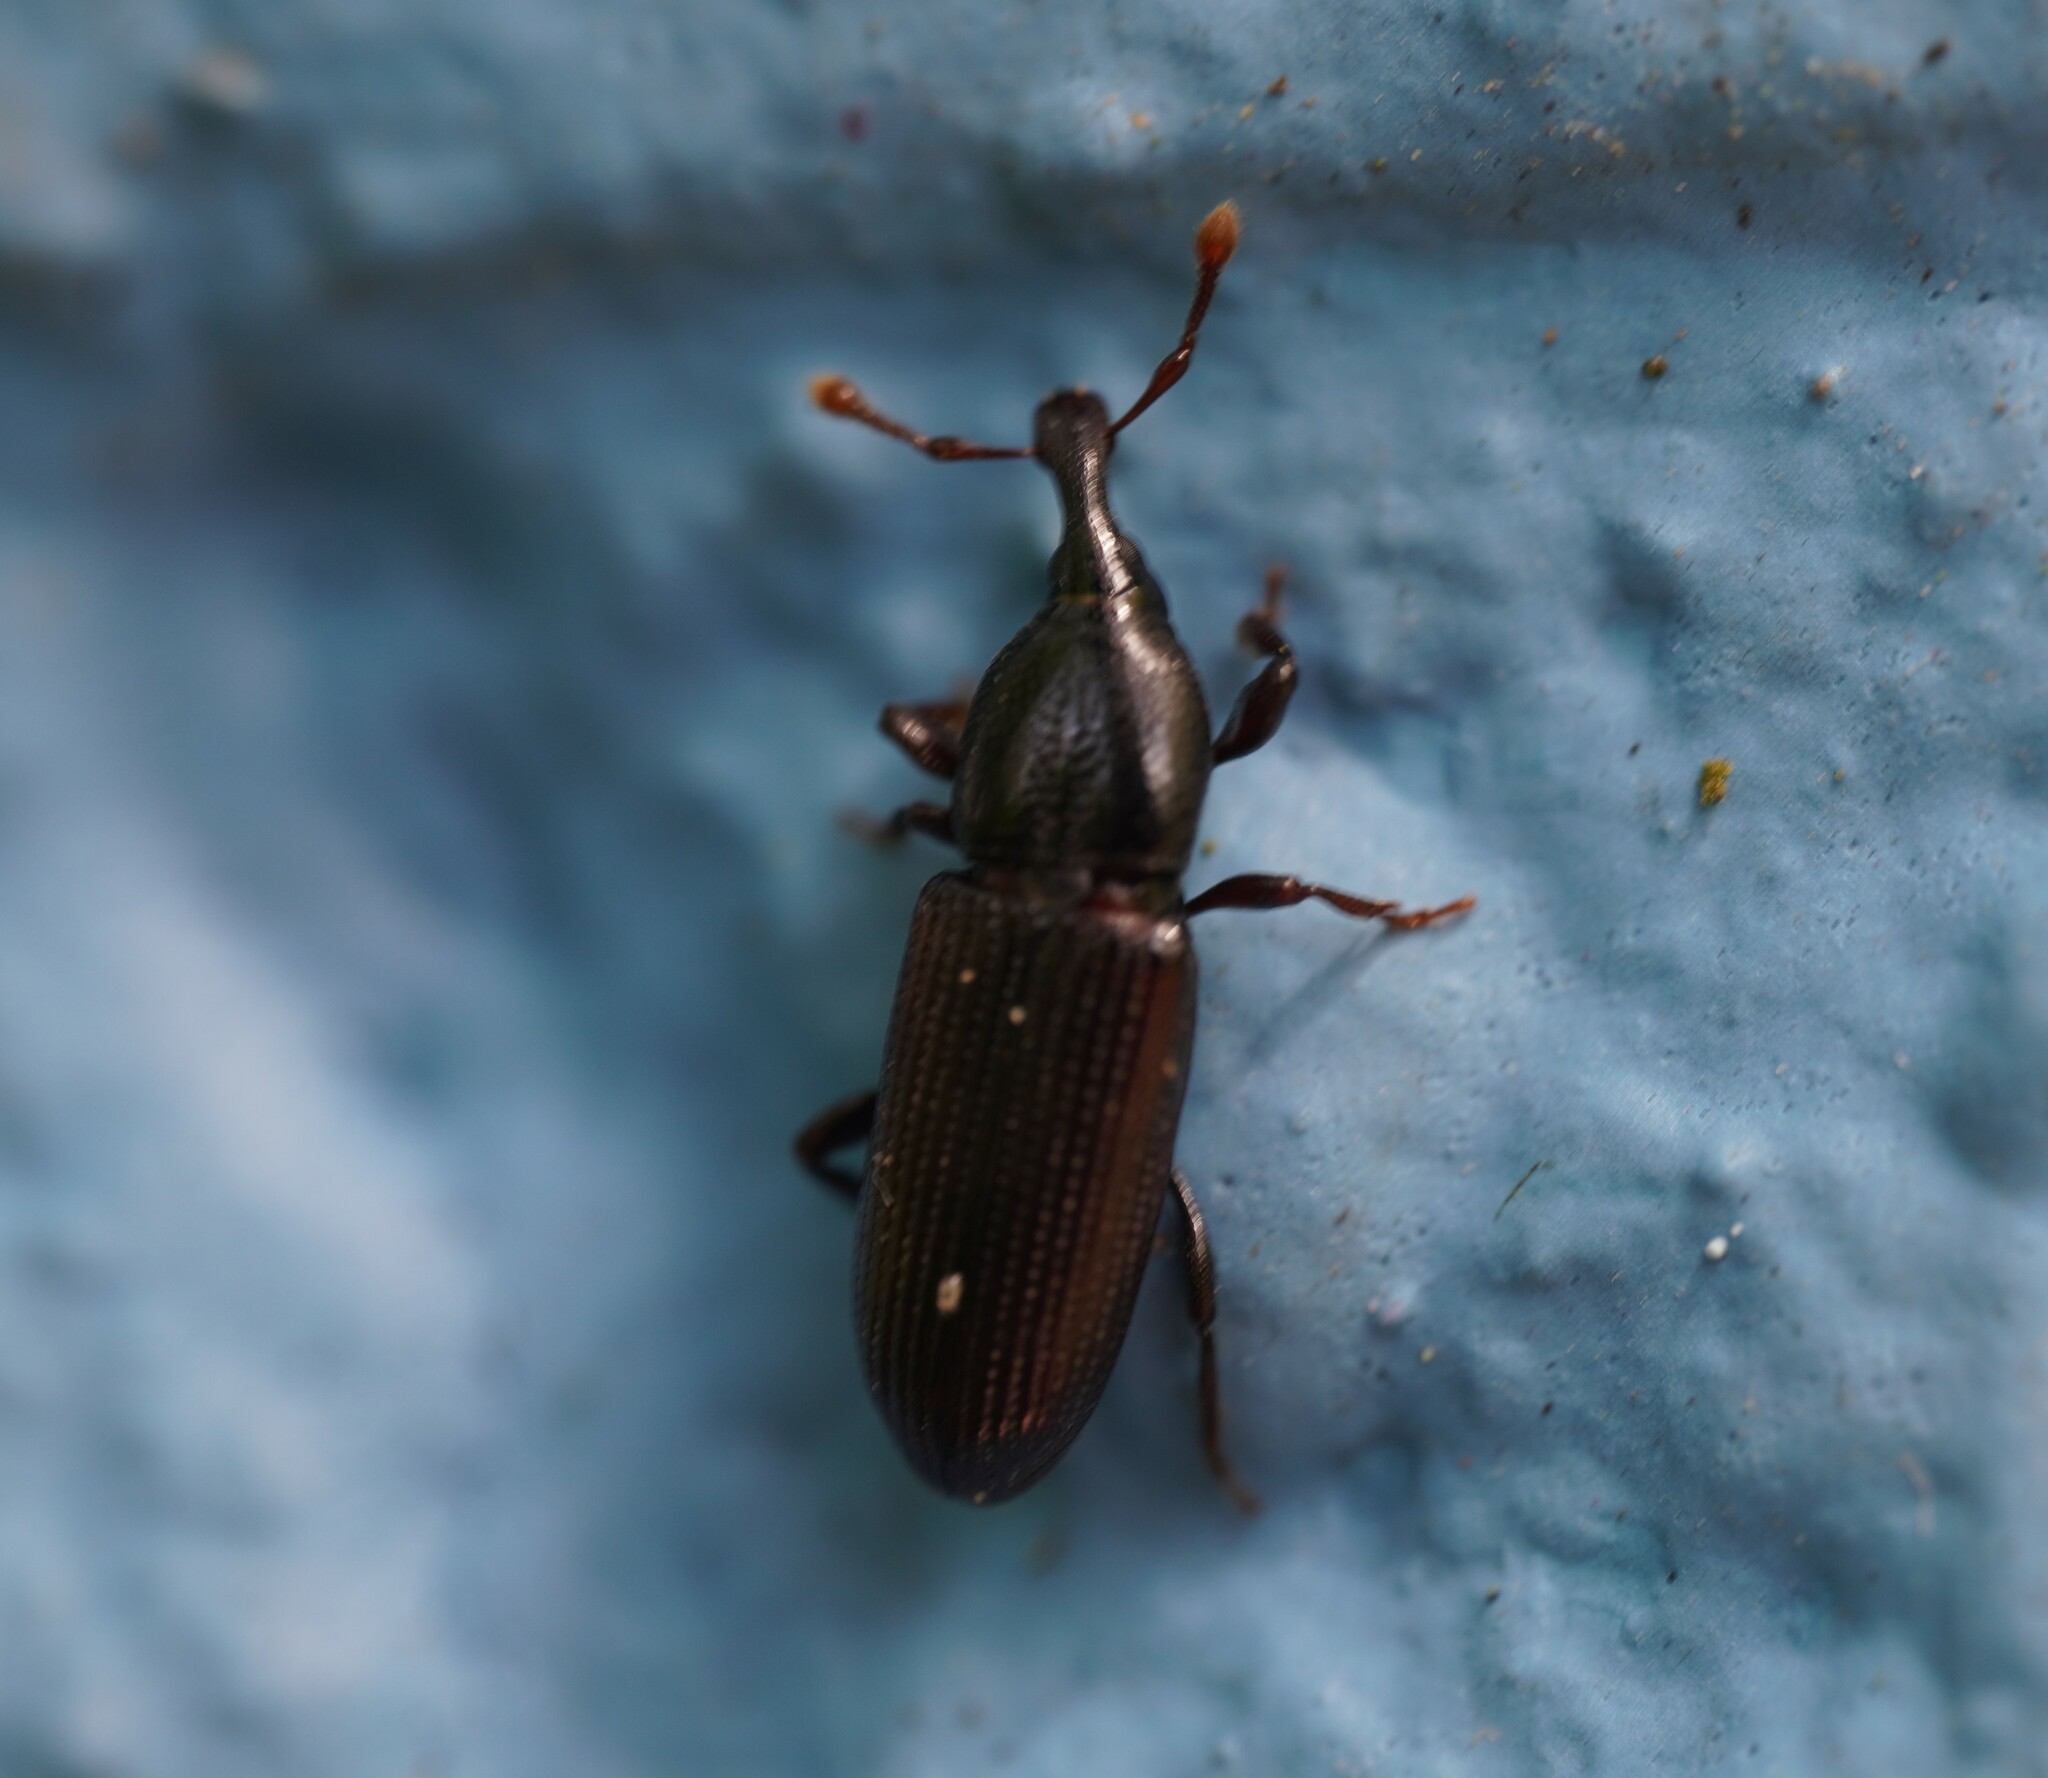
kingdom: Animalia
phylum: Arthropoda
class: Insecta
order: Coleoptera
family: Curculionidae
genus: Cossonus
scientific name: Cossonus linearis
